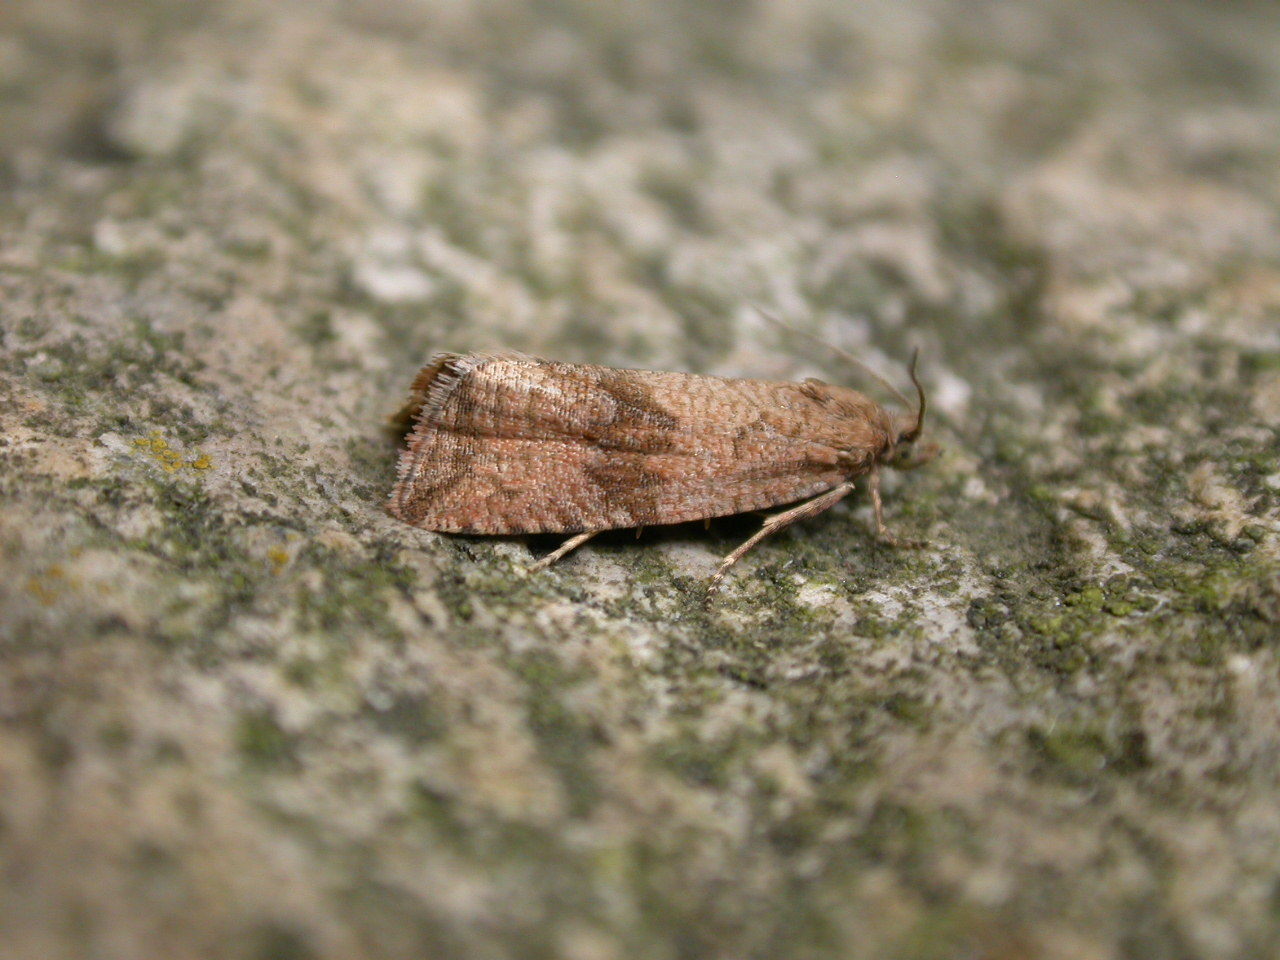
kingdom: Animalia
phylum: Arthropoda
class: Insecta
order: Lepidoptera
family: Tortricidae
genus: Celypha
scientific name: Celypha striana
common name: Barred marble
